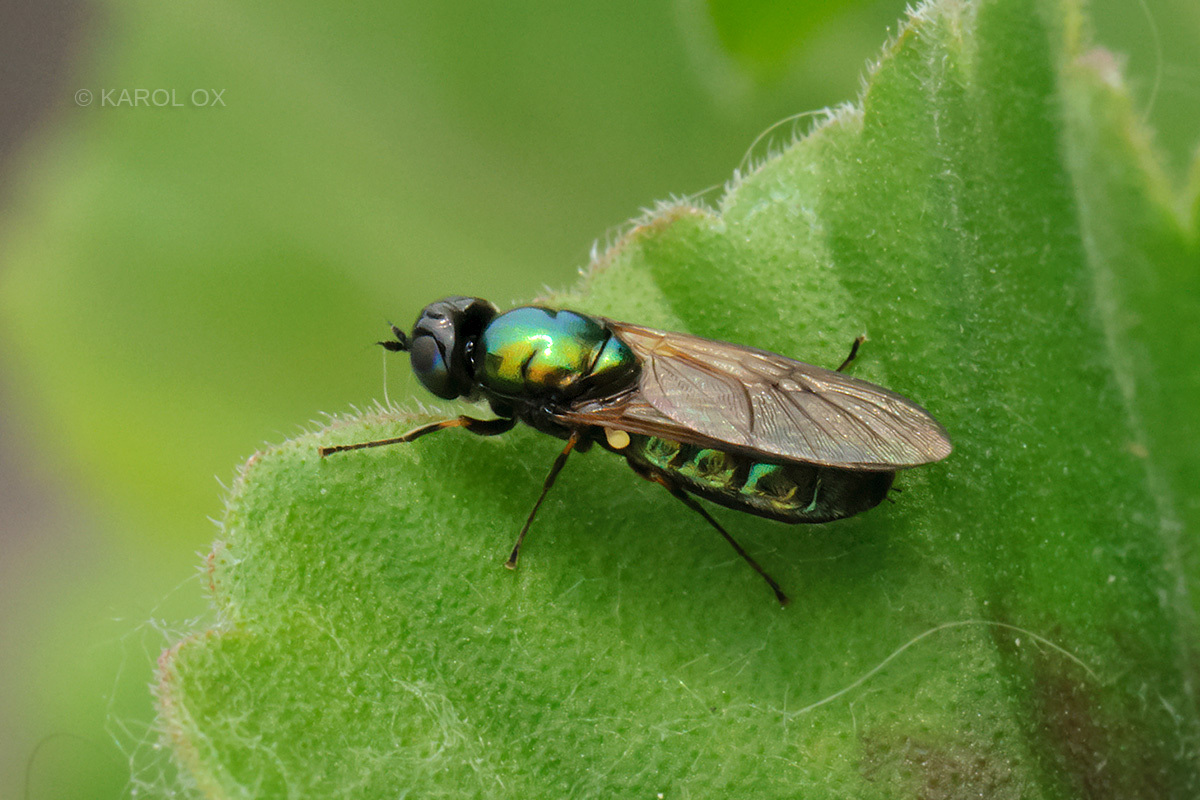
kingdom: Animalia
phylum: Arthropoda
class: Insecta
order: Diptera
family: Stratiomyidae
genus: Chloromyia
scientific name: Chloromyia formosa
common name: Soldier fly
